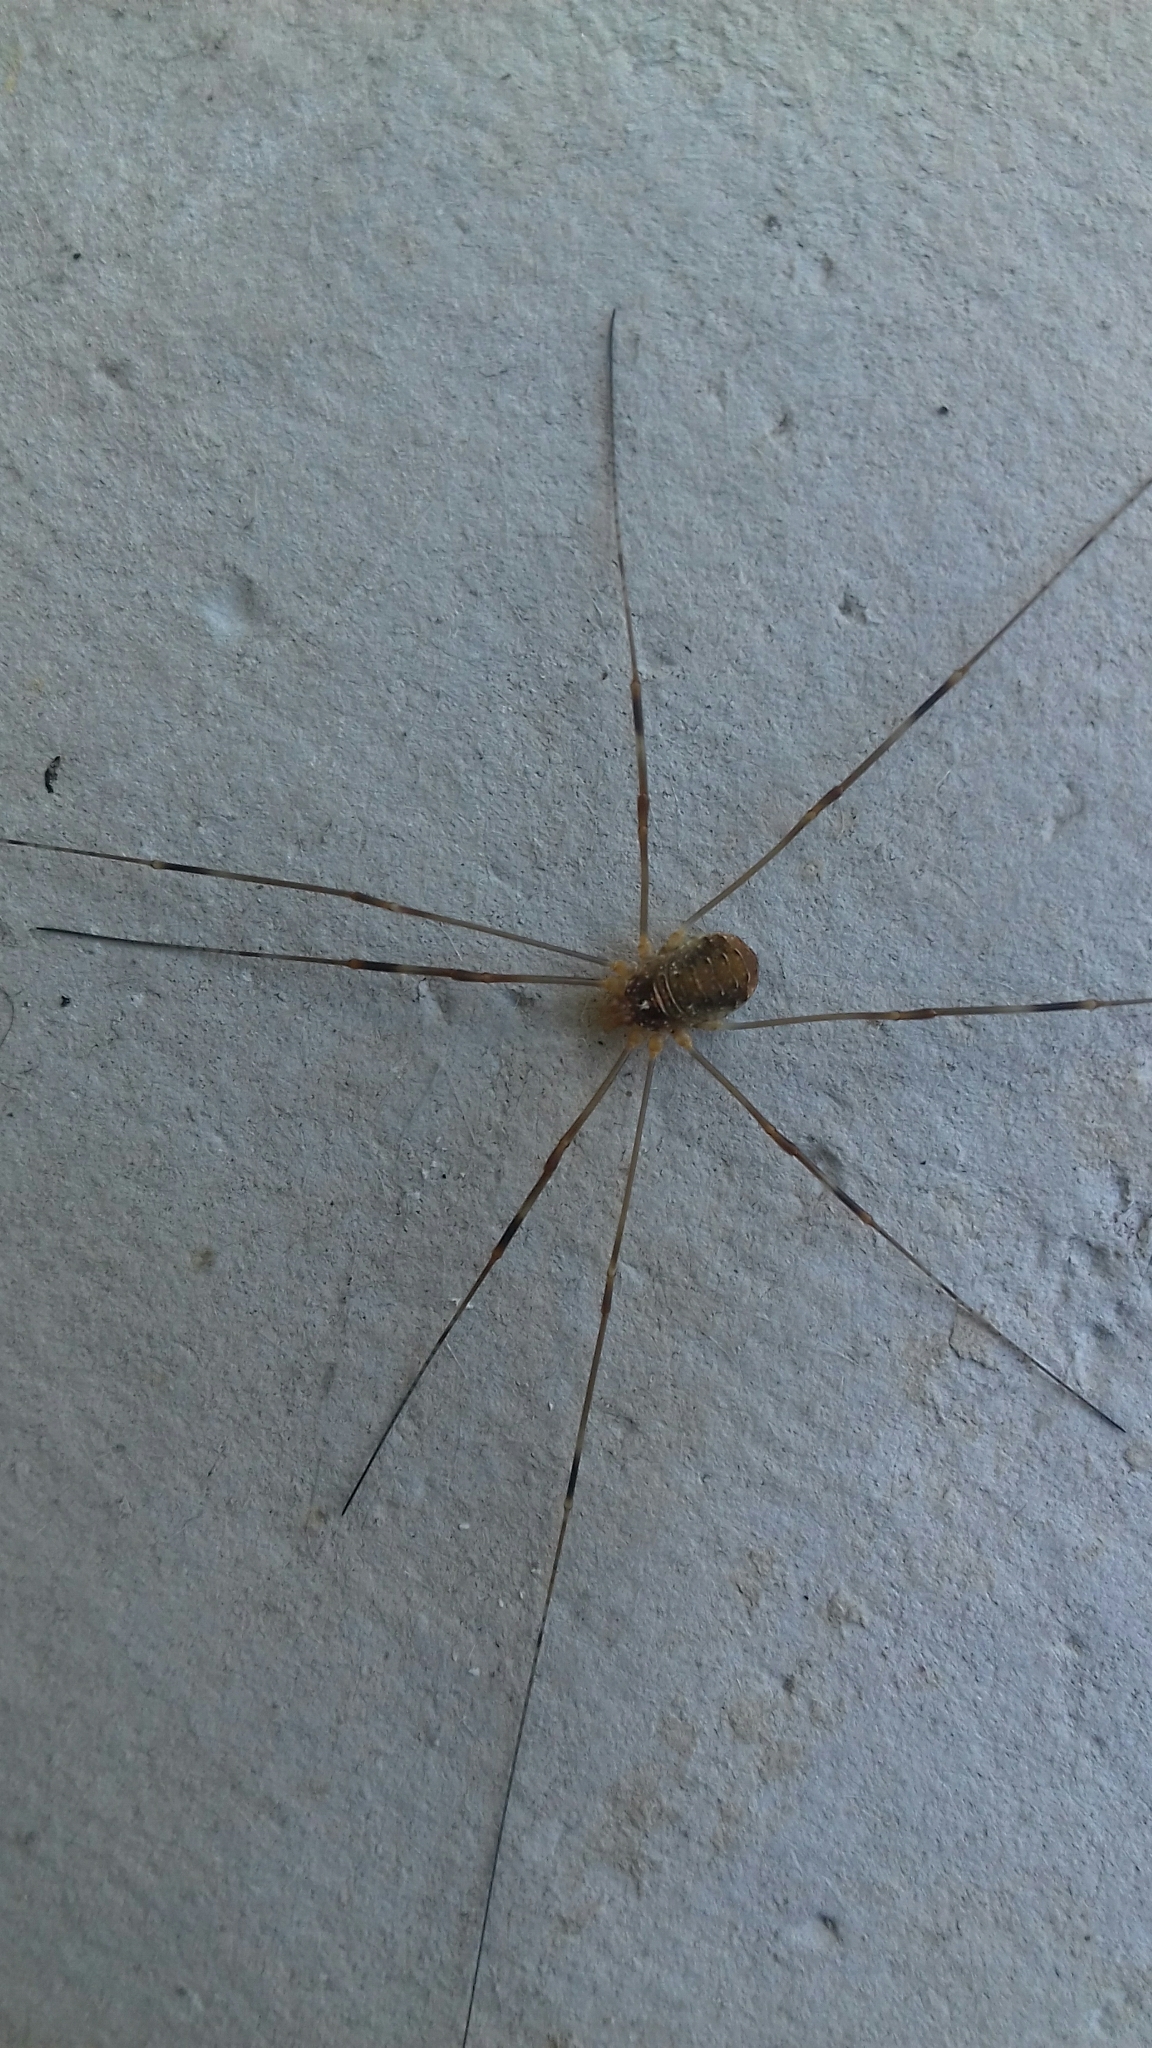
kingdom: Animalia
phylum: Arthropoda
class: Arachnida
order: Opiliones
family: Phalangiidae
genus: Opilio
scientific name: Opilio canestrinii
